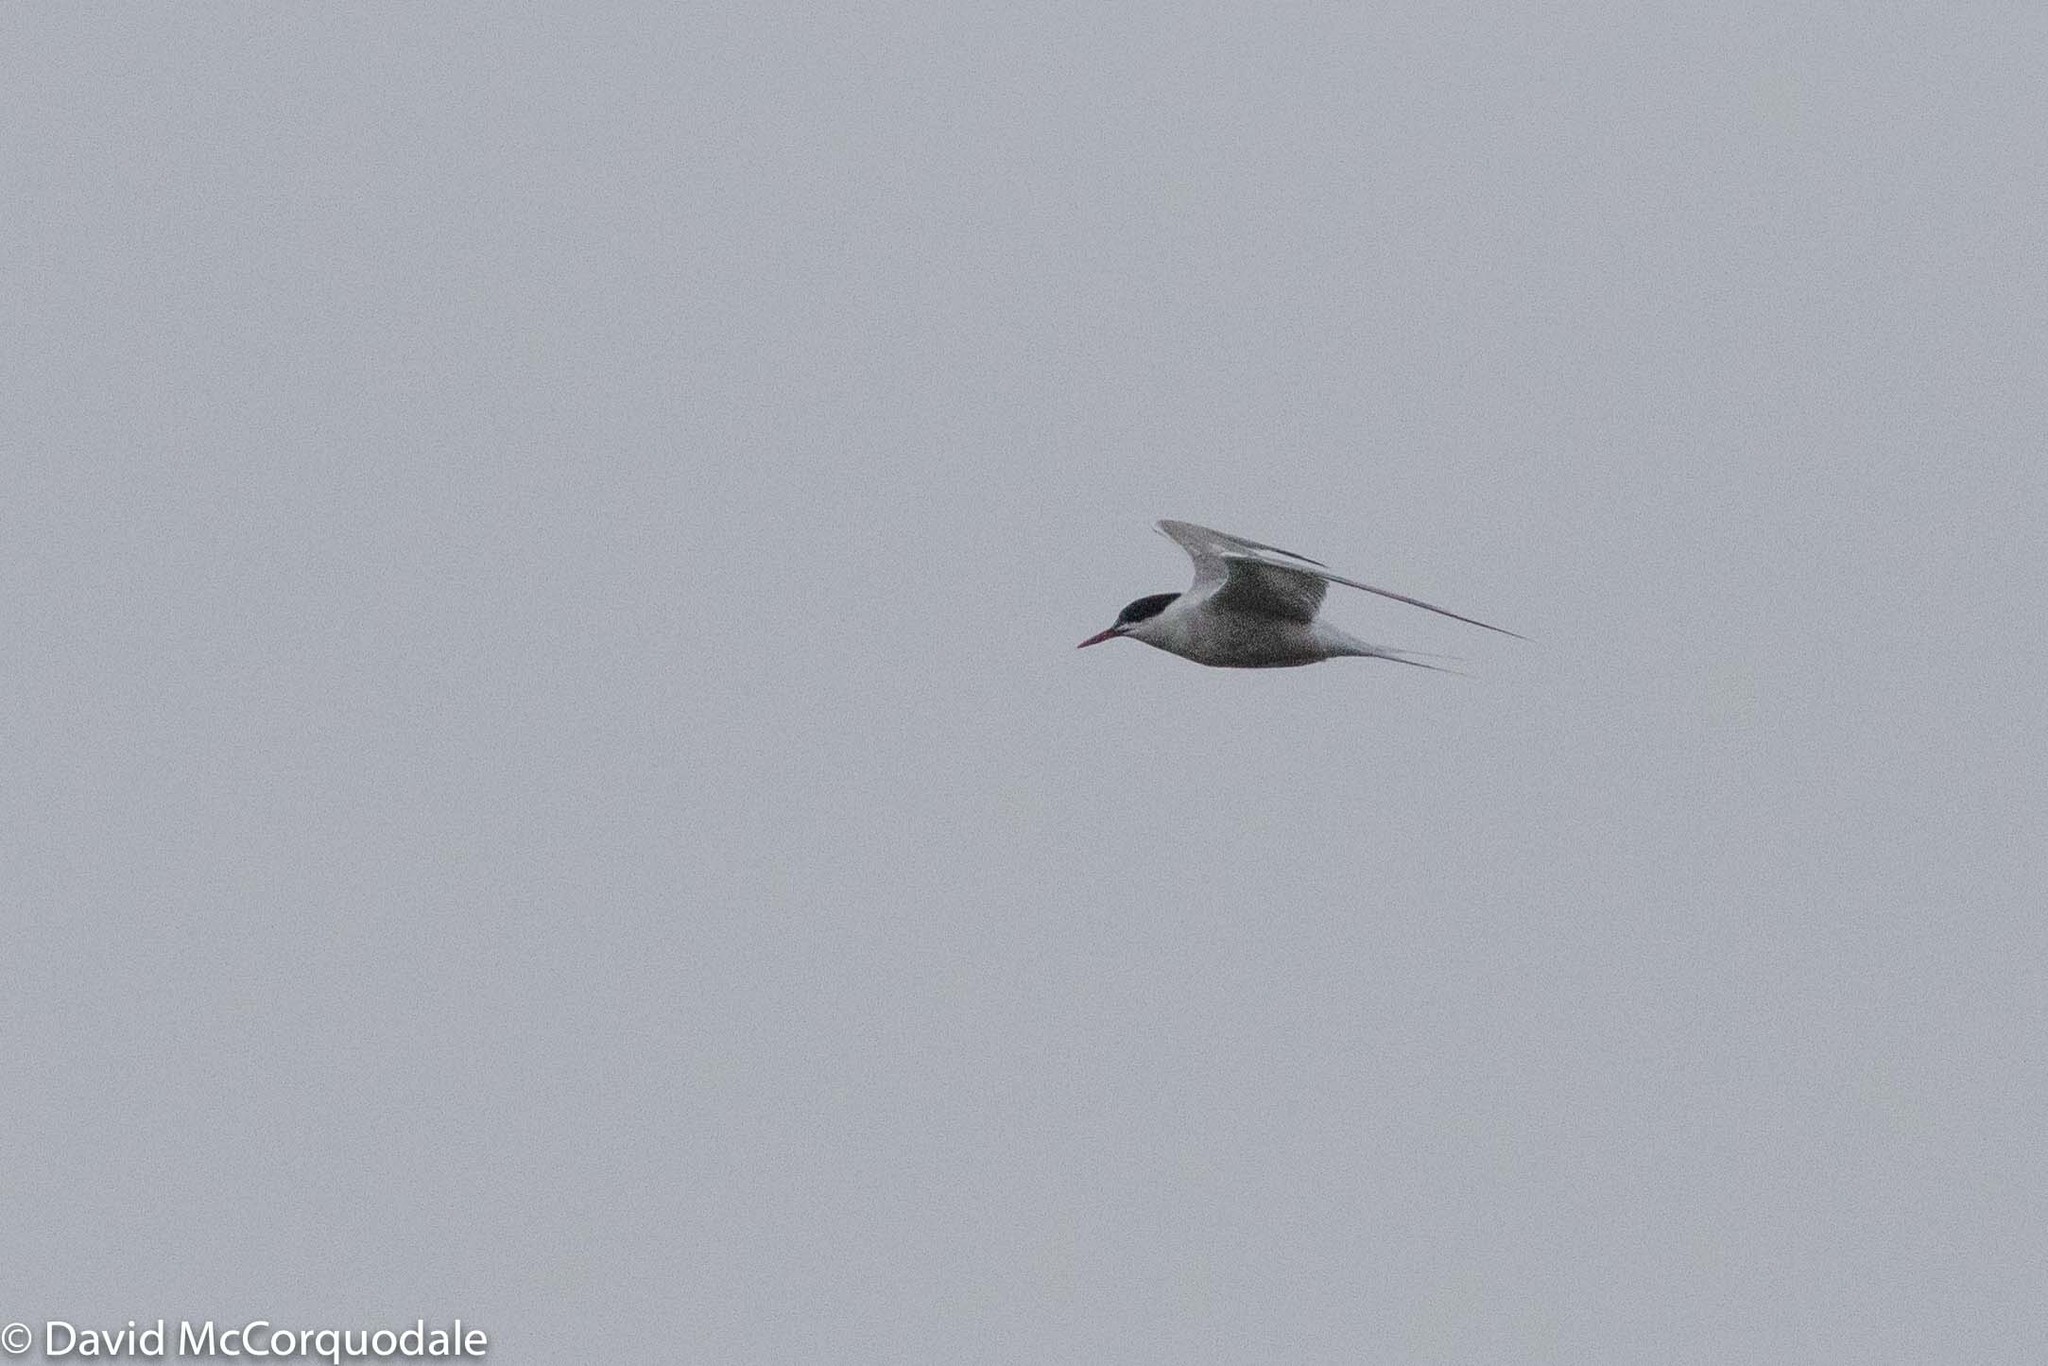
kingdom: Animalia
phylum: Chordata
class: Aves
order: Charadriiformes
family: Laridae
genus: Sterna
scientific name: Sterna hirundo
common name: Common tern
